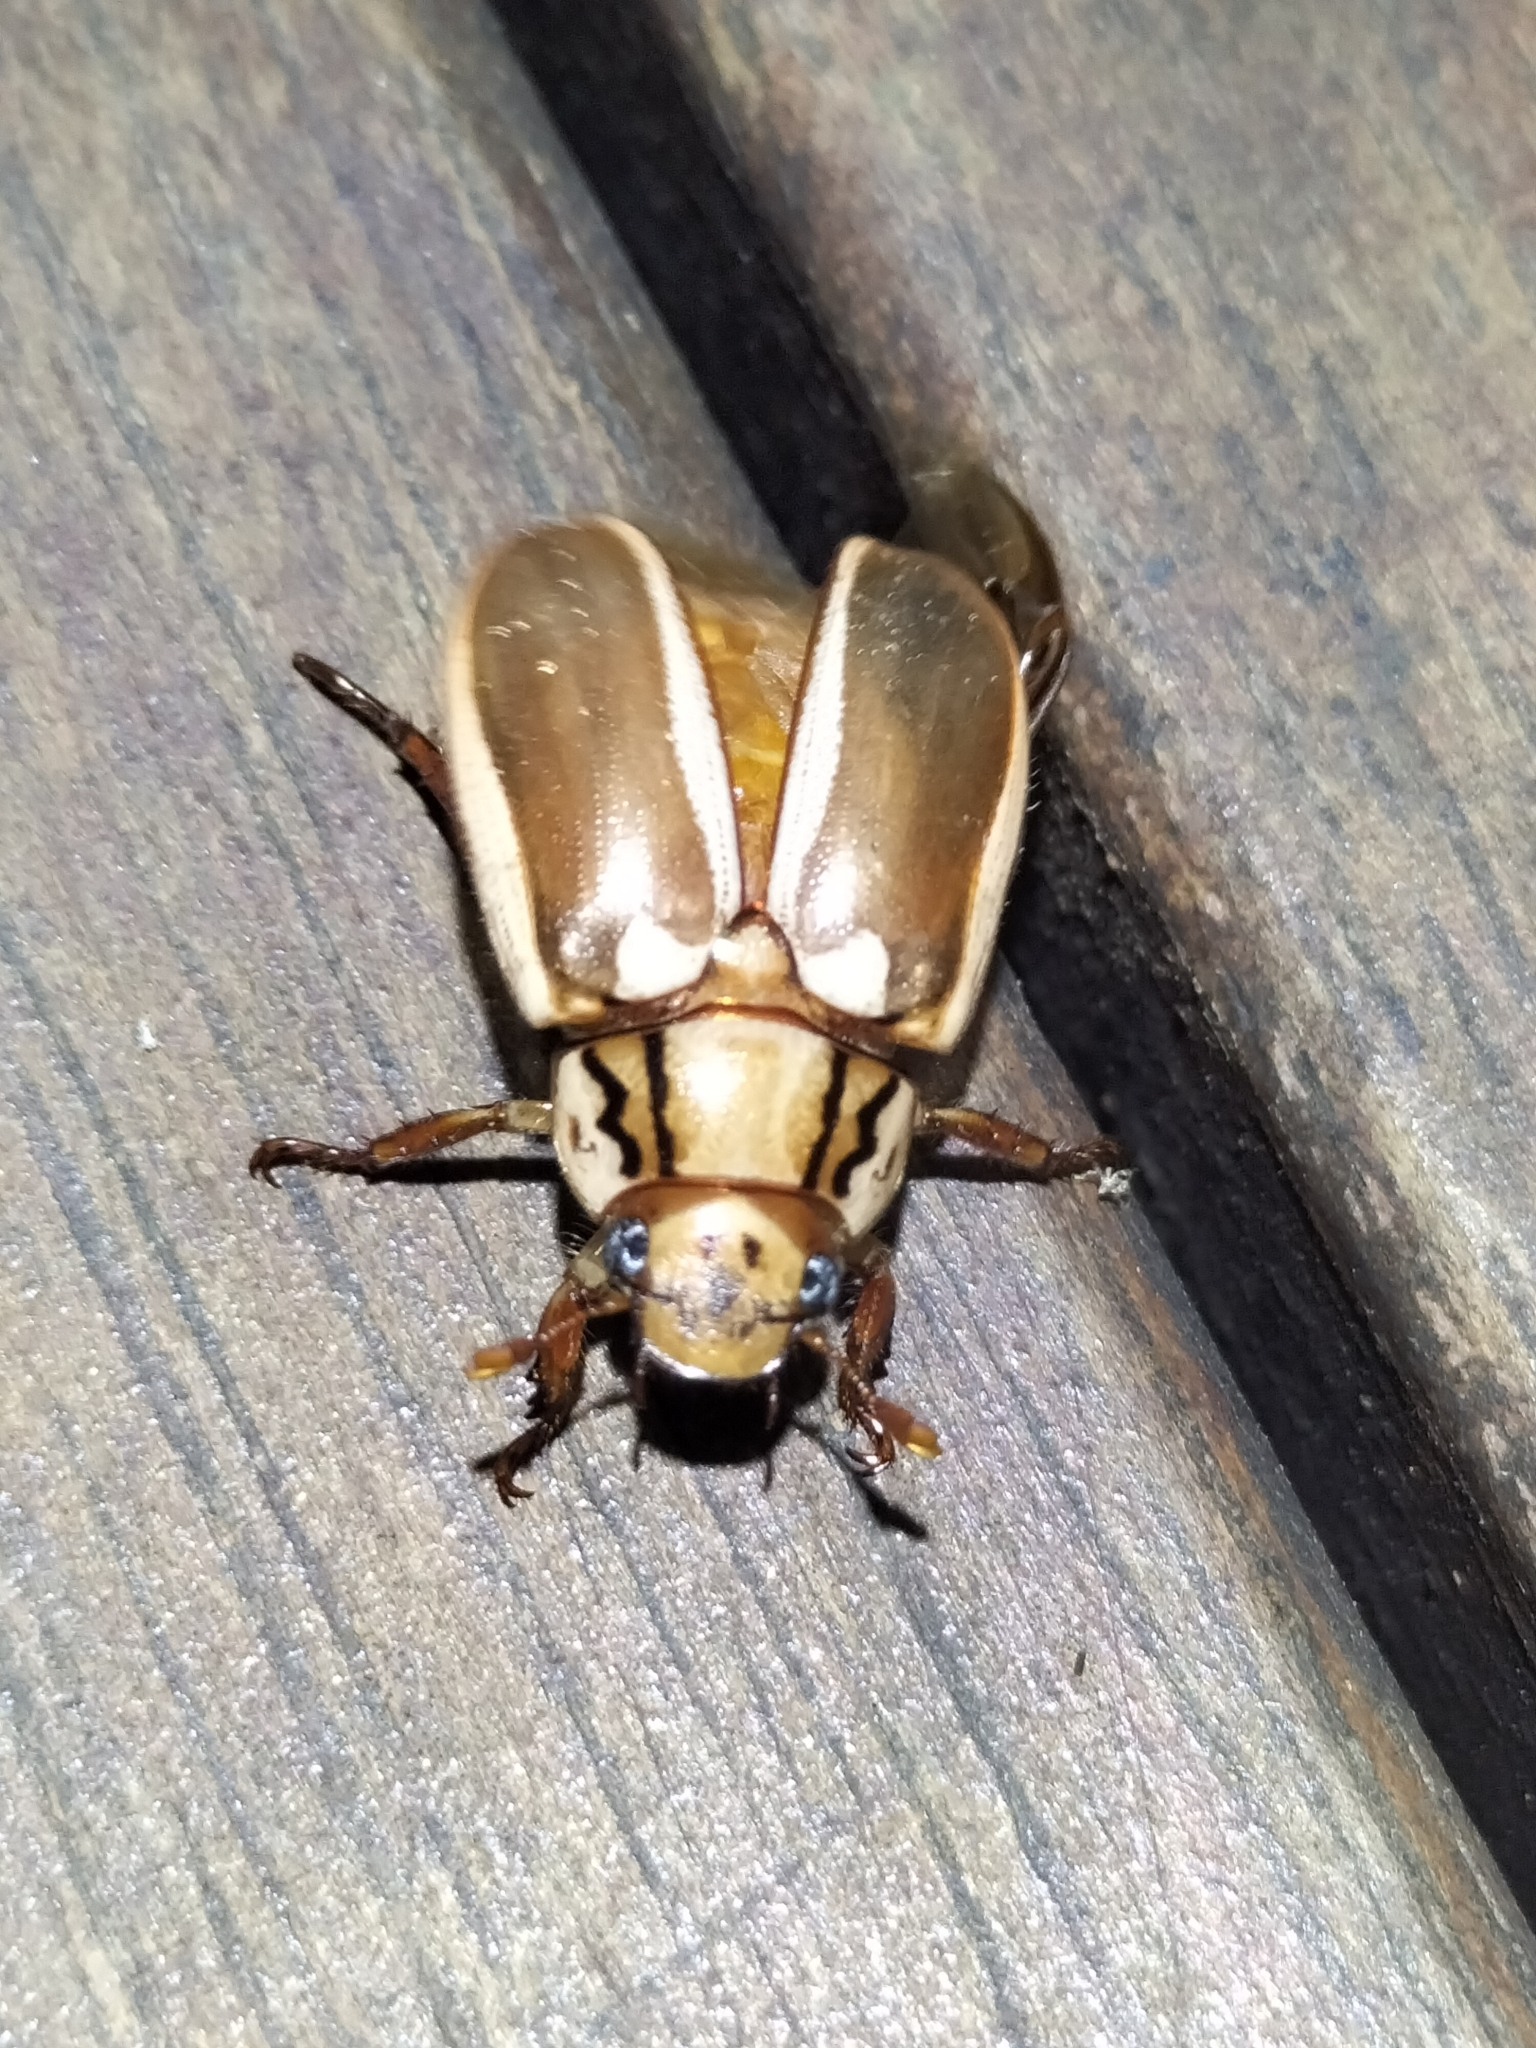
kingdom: Animalia
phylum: Arthropoda
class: Insecta
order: Coleoptera
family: Scarabaeidae
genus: Anoplognathus
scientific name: Anoplognathus abnormis
